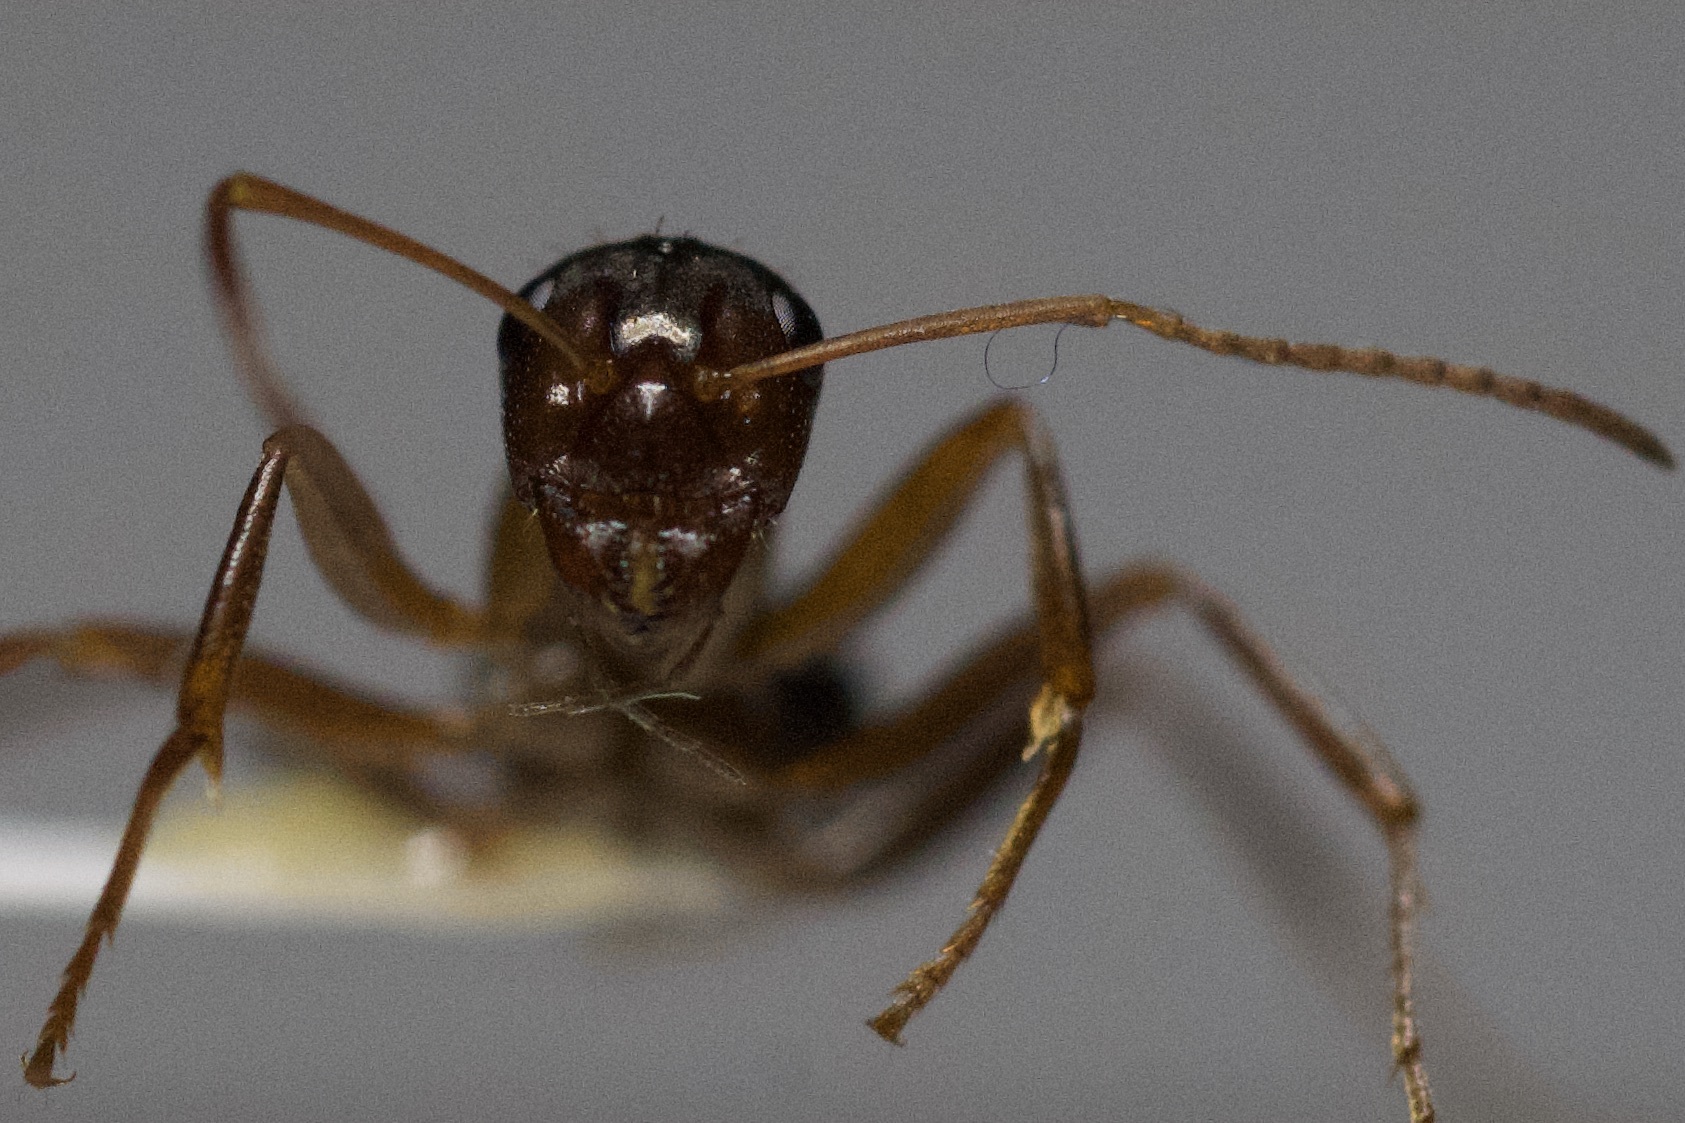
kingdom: Animalia
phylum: Arthropoda
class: Insecta
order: Hymenoptera
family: Formicidae
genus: Formica
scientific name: Formica pallidefulva
